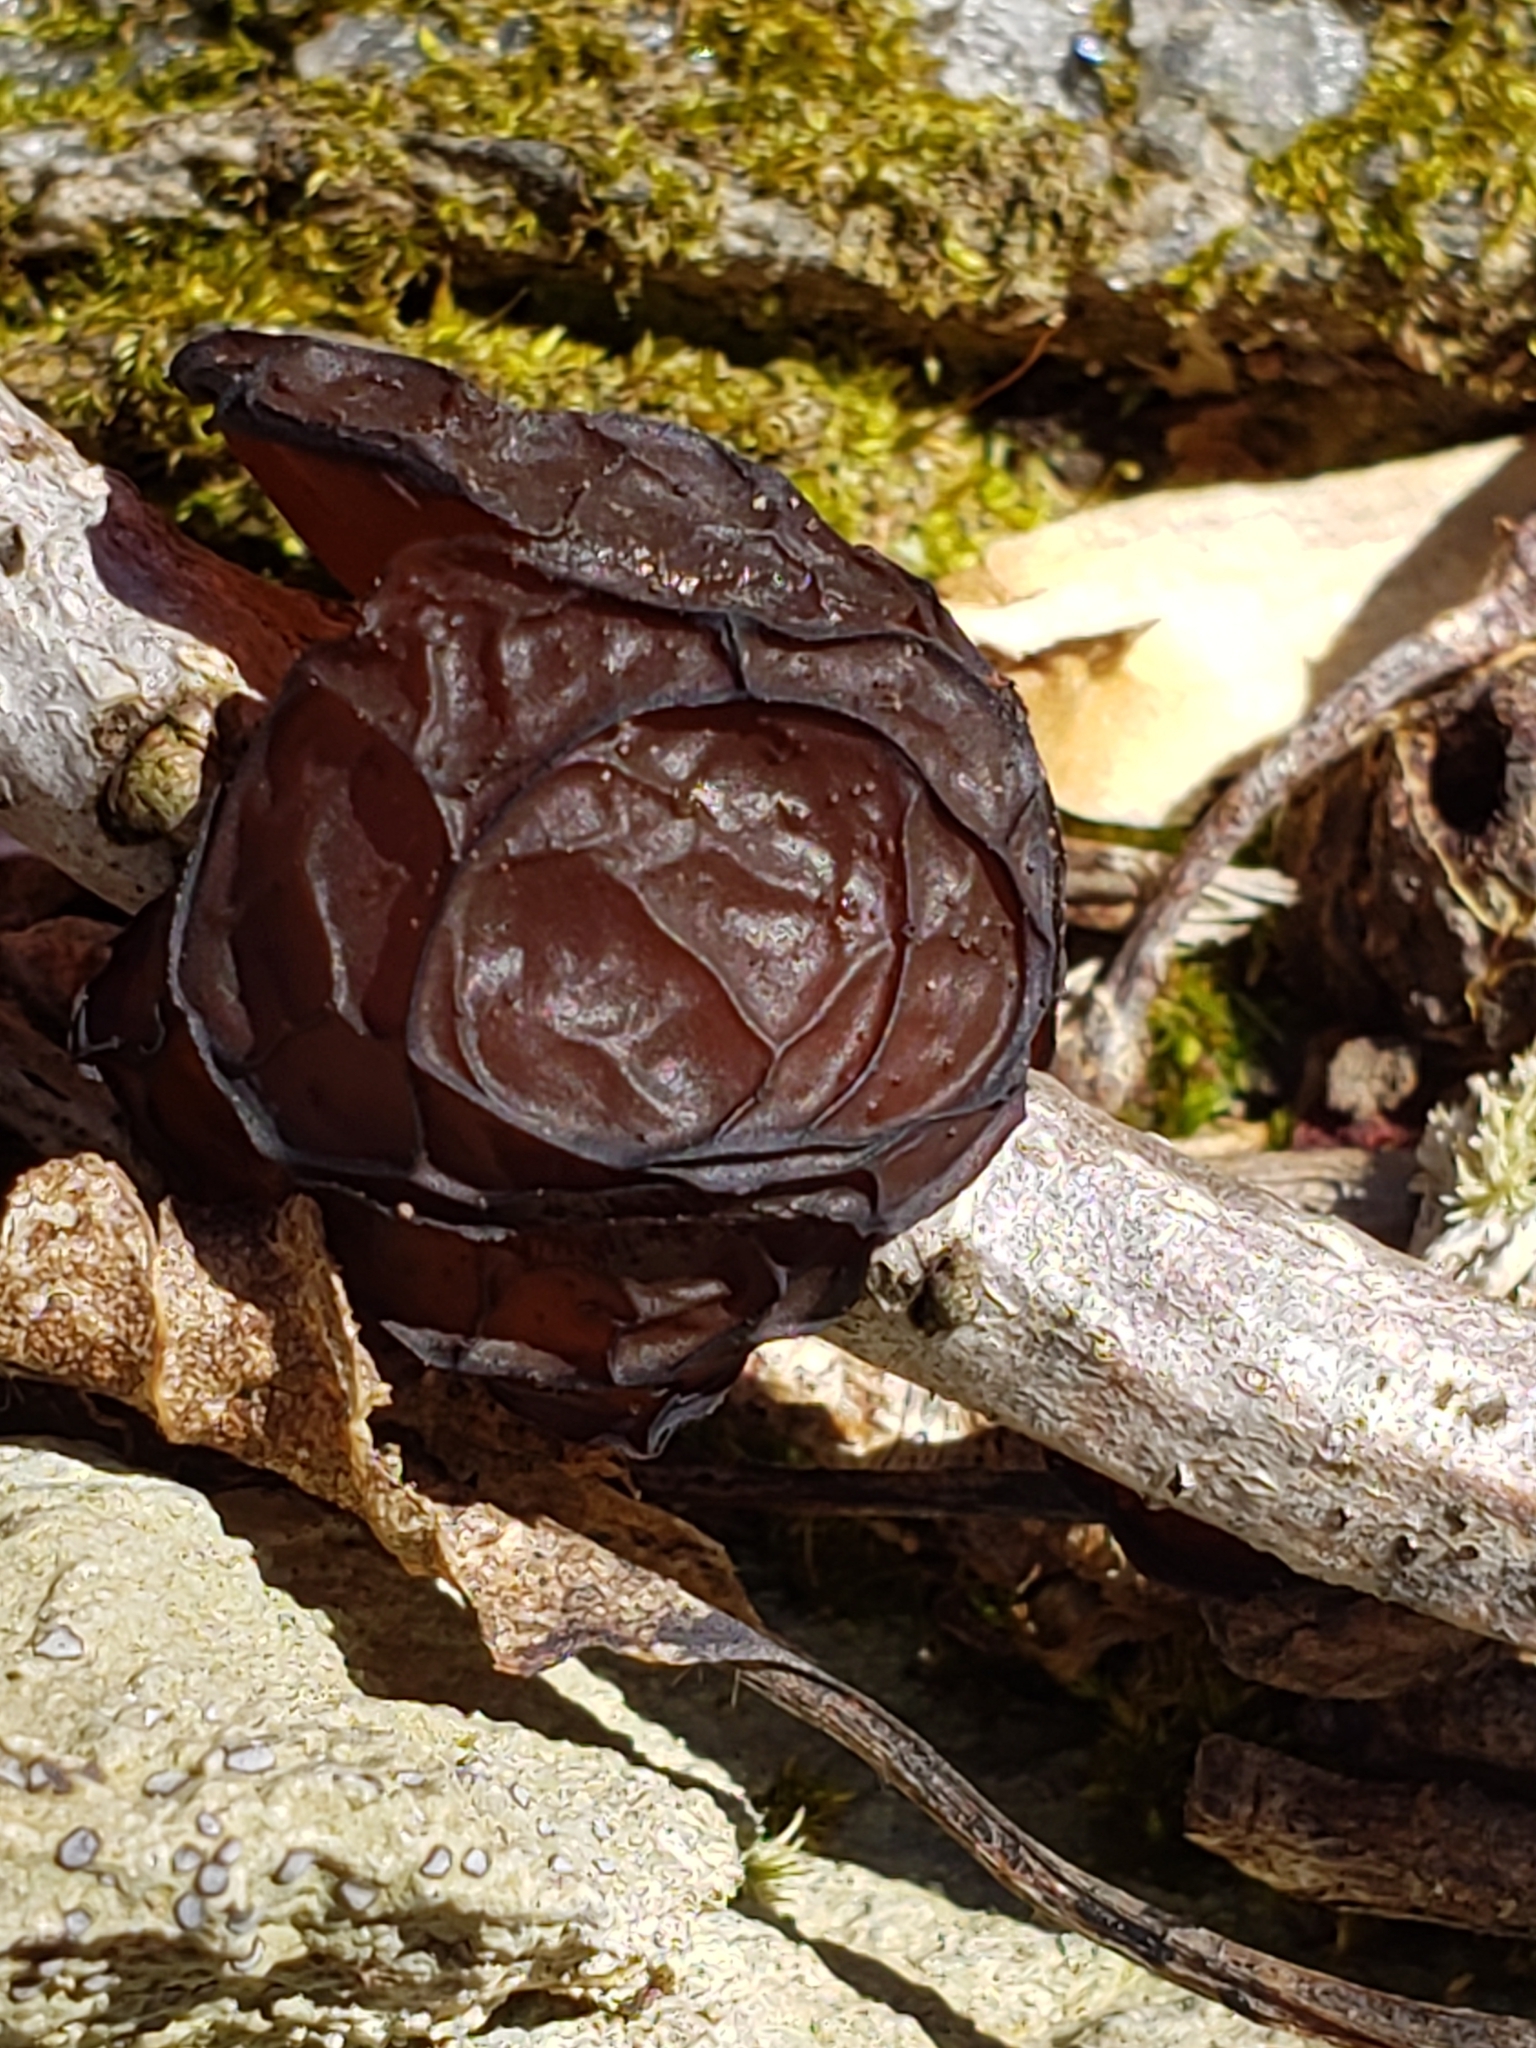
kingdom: Fungi
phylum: Basidiomycota
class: Agaricomycetes
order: Auriculariales
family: Auriculariaceae
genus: Exidia
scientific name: Exidia
